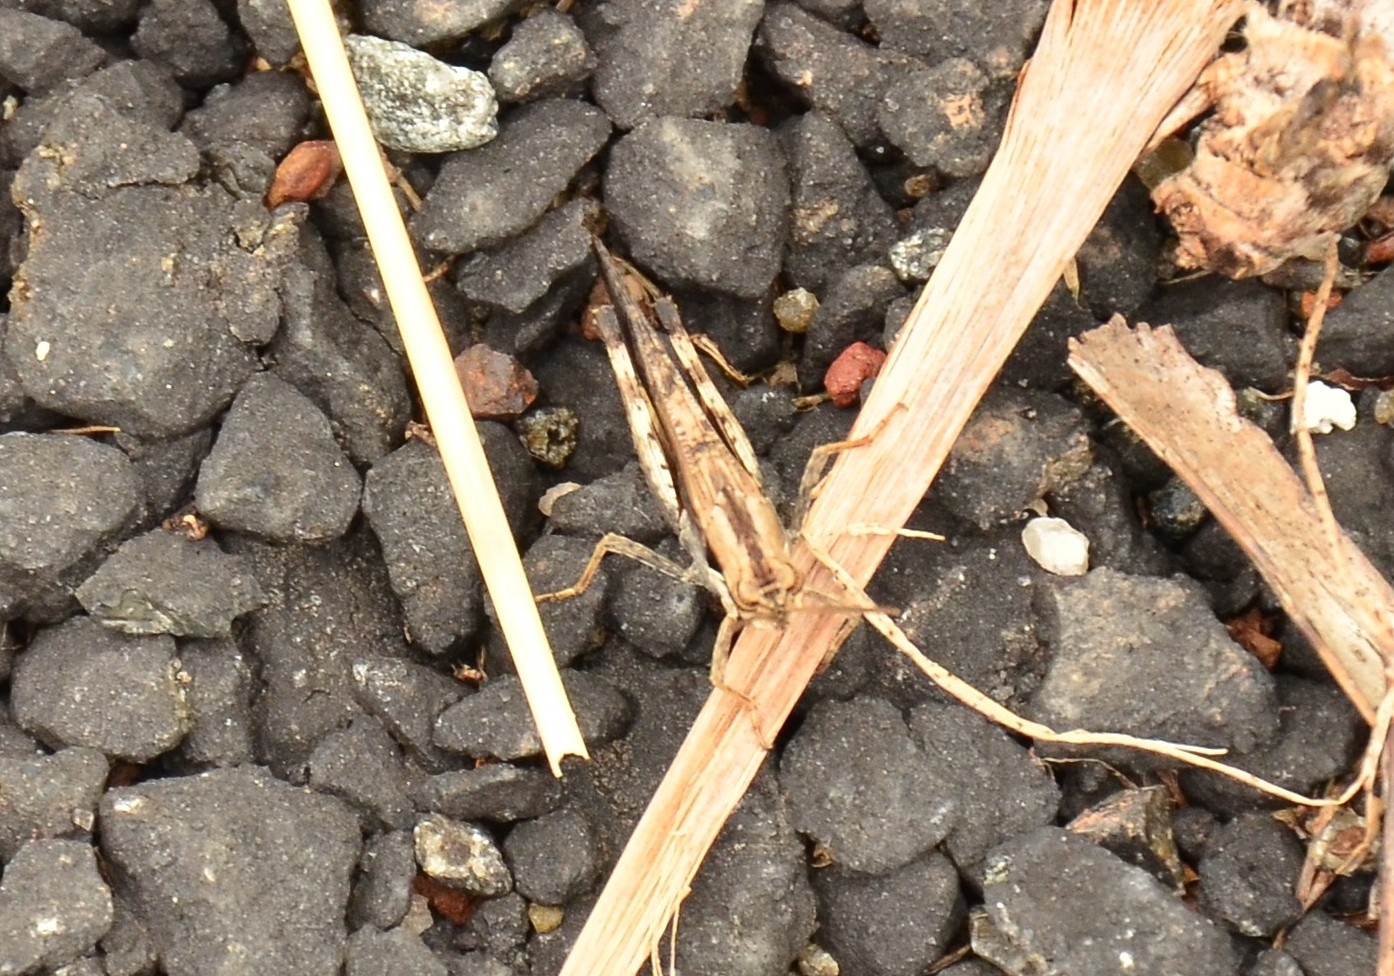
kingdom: Animalia
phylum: Arthropoda
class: Insecta
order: Orthoptera
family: Acrididae
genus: Morphacris
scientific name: Morphacris fasciata
